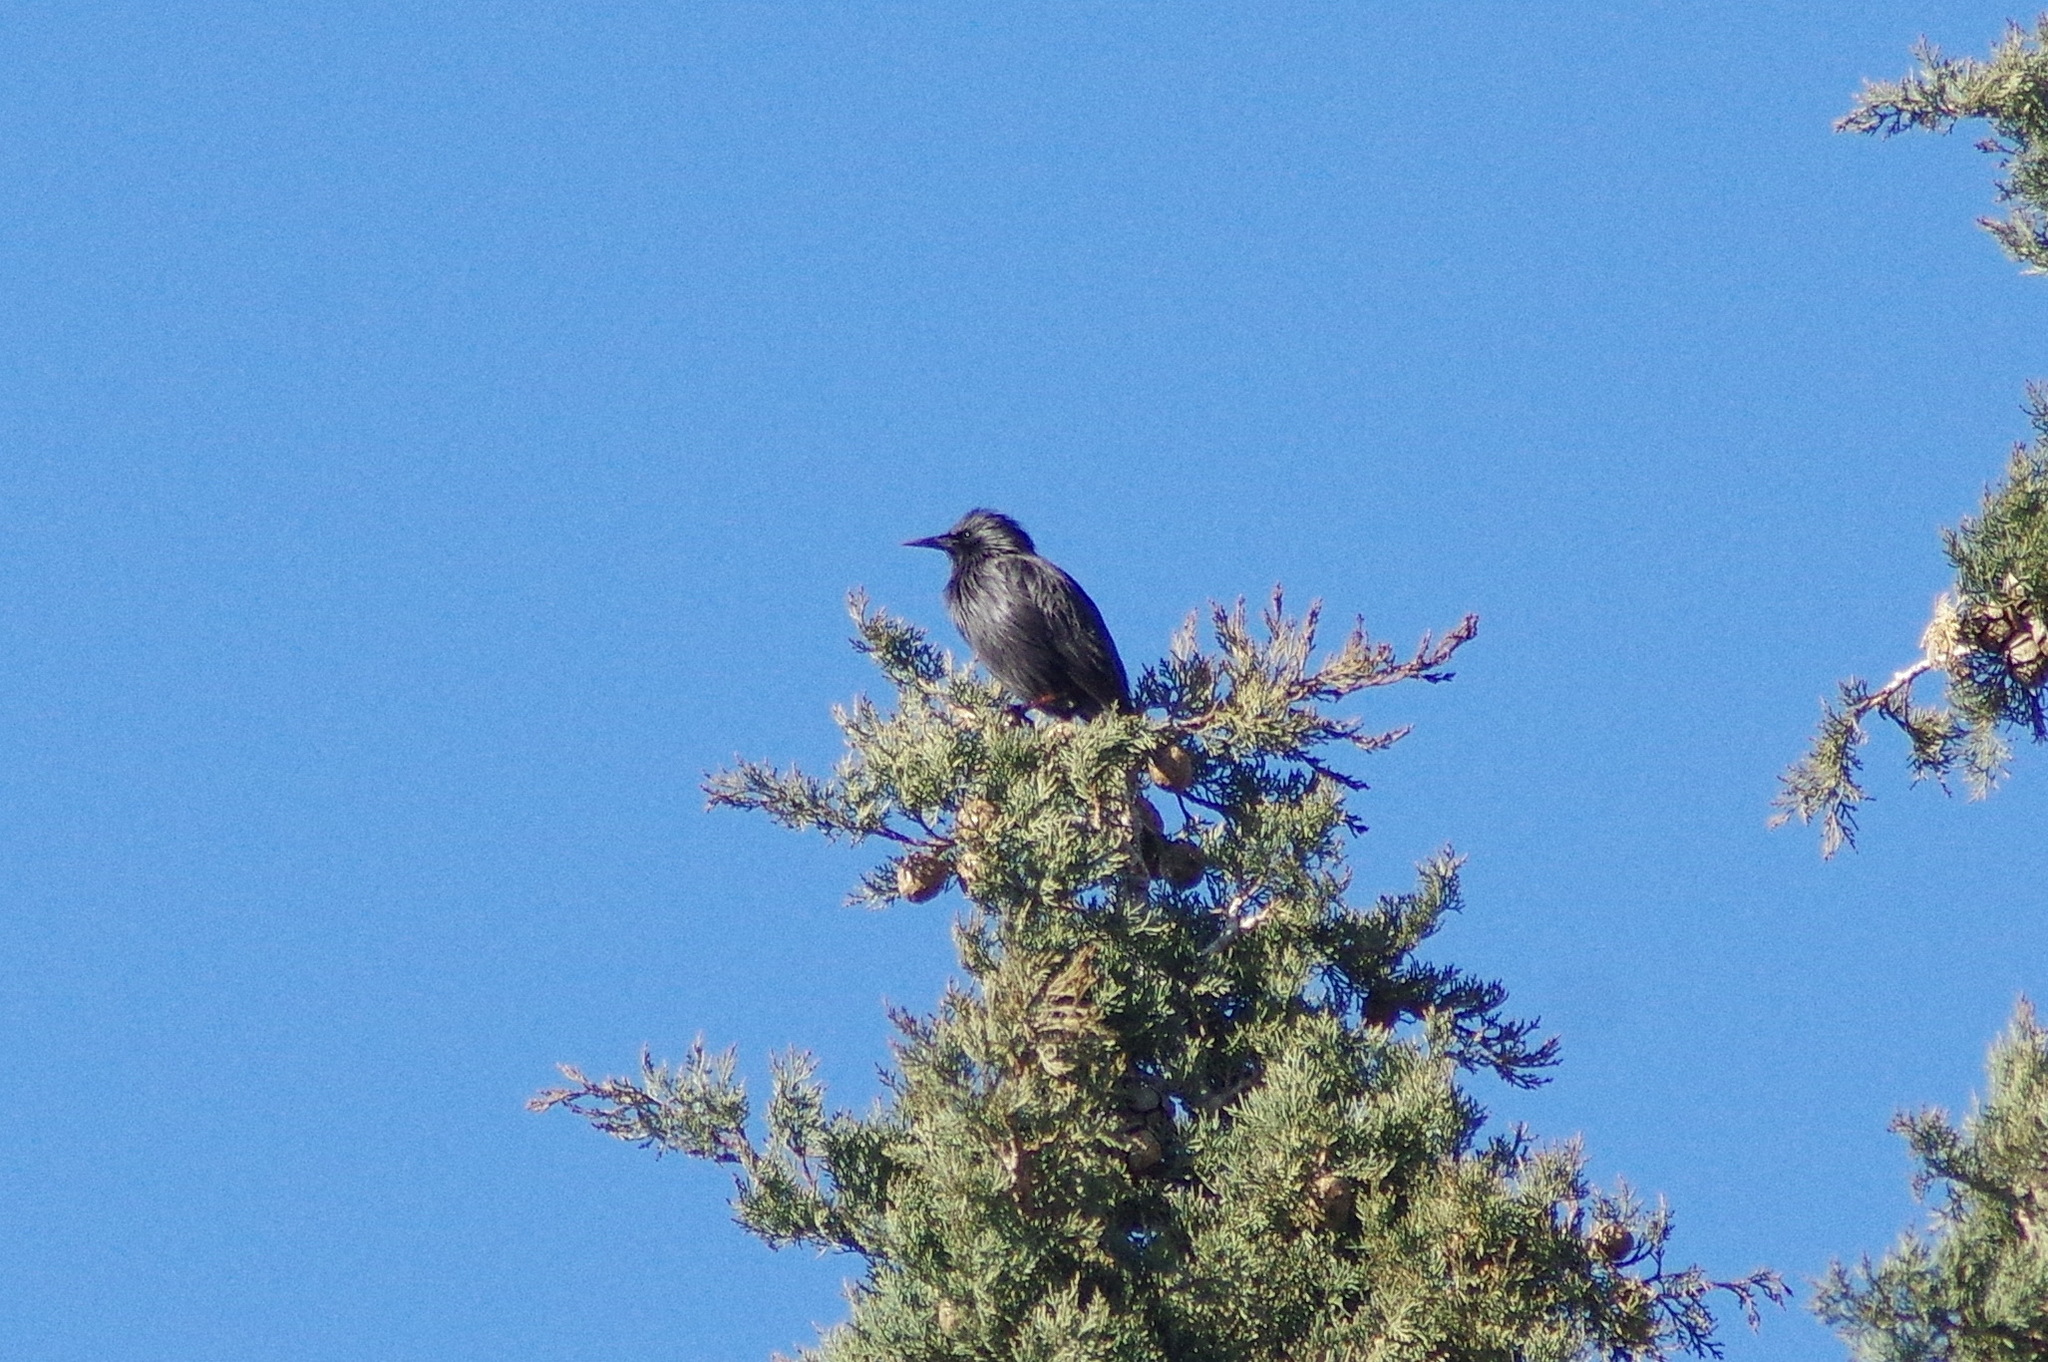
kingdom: Animalia
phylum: Chordata
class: Aves
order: Passeriformes
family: Sturnidae
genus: Sturnus
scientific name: Sturnus unicolor
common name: Spotless starling
